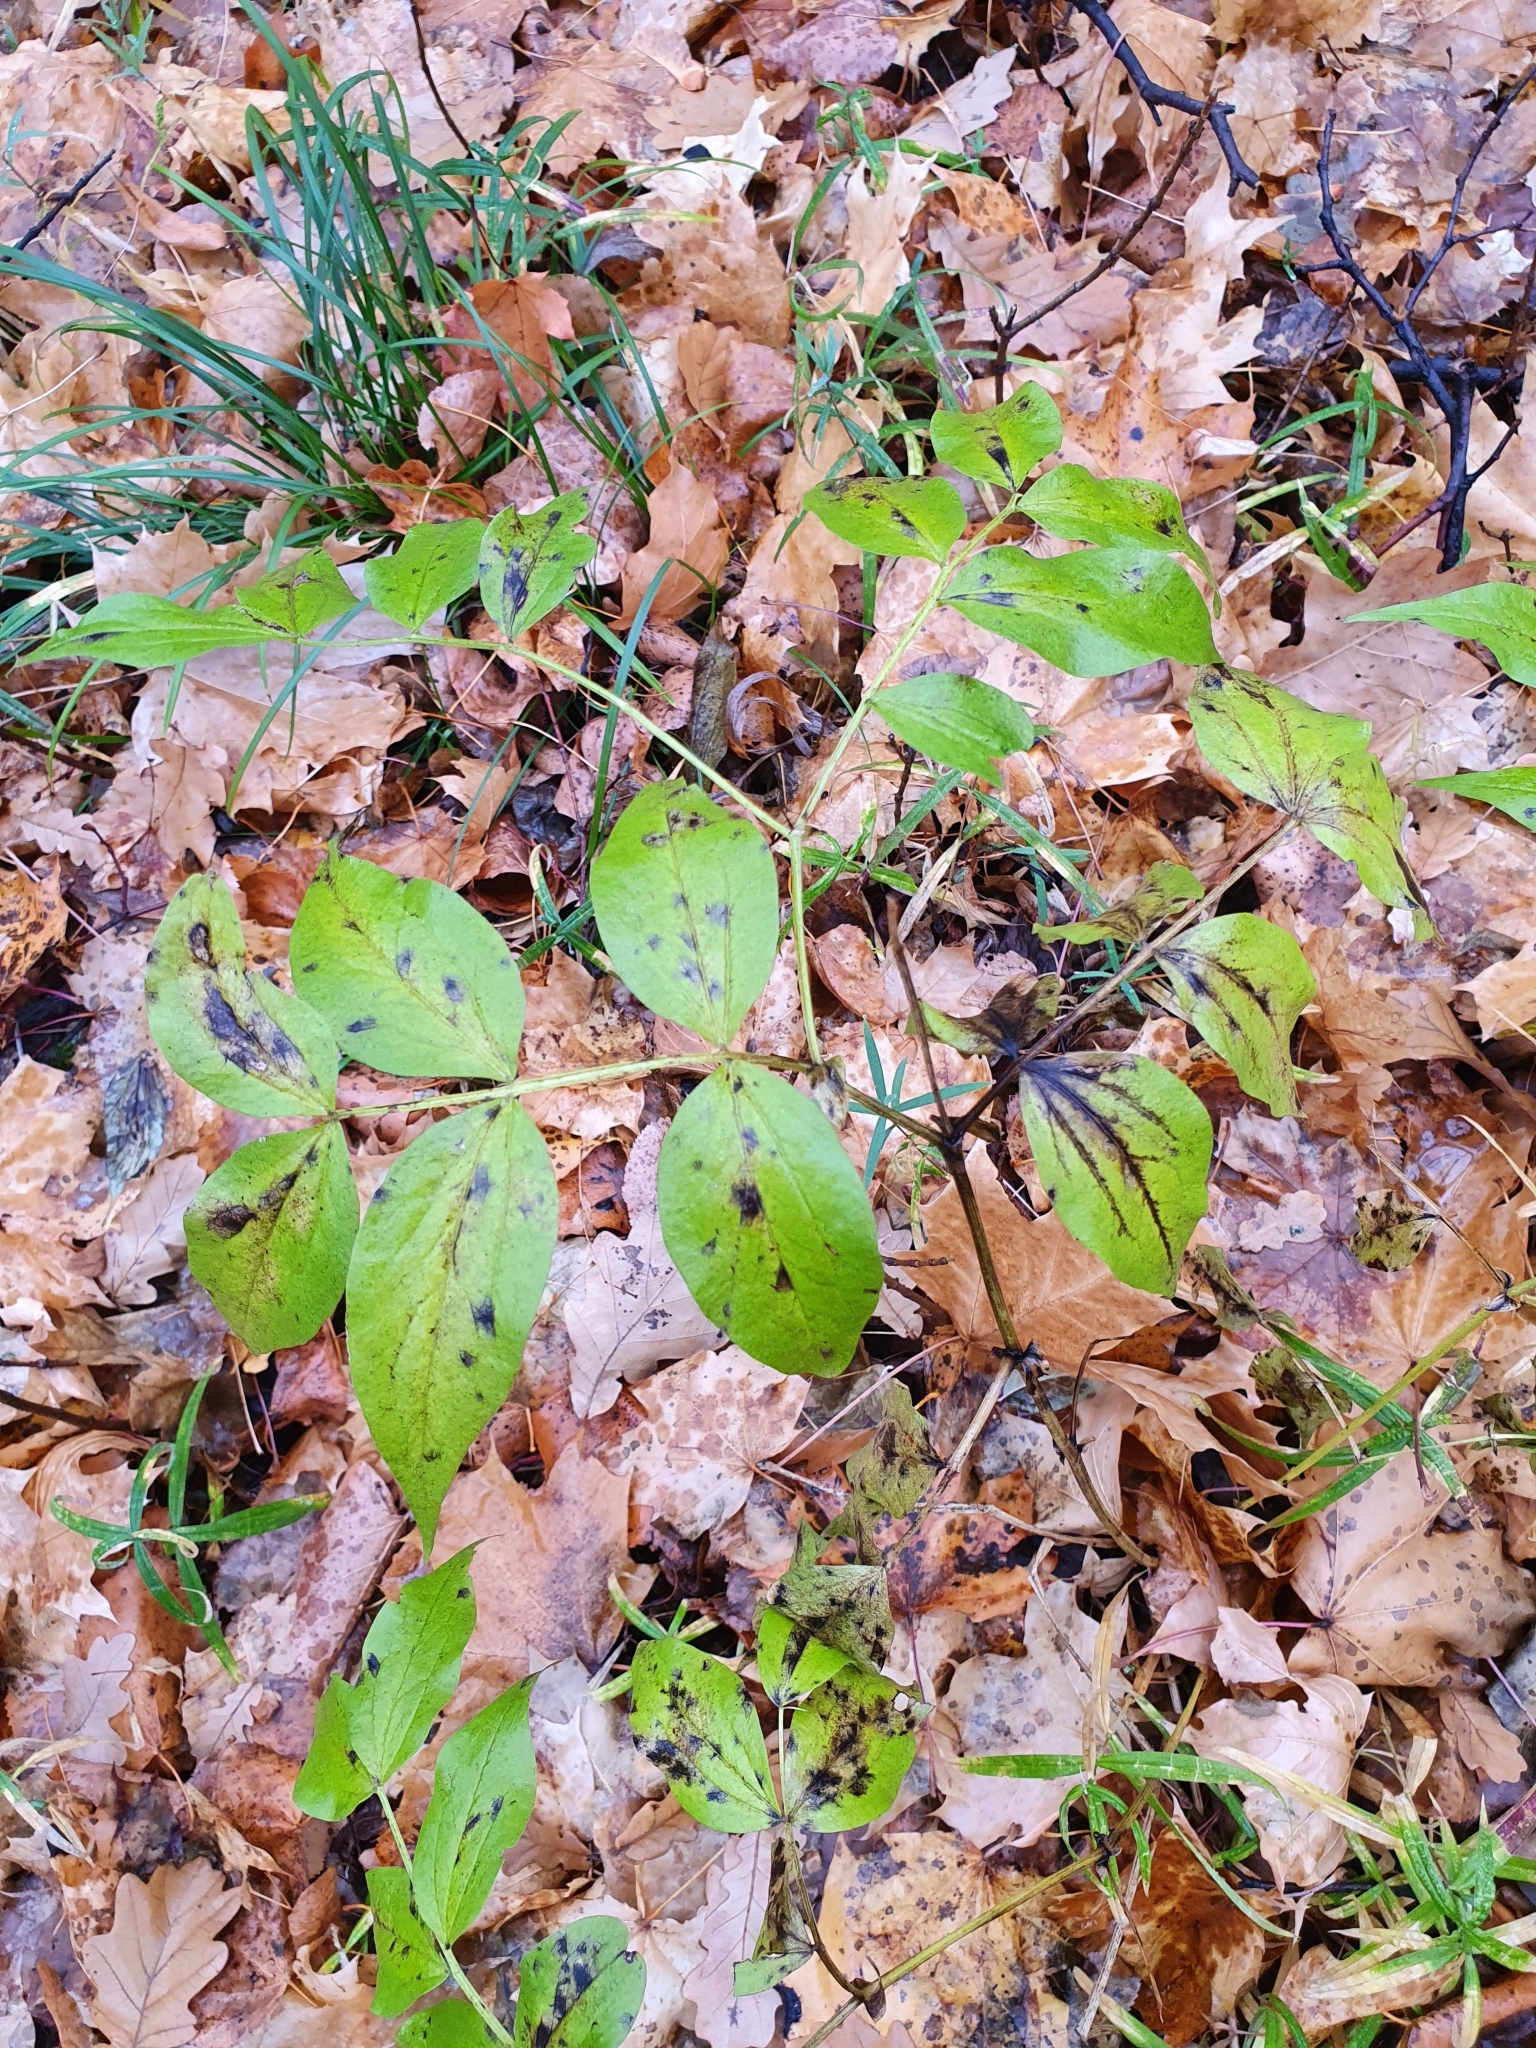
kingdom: Plantae
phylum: Tracheophyta
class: Magnoliopsida
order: Fabales
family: Fabaceae
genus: Lathyrus
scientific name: Lathyrus vernus
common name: Spring pea
